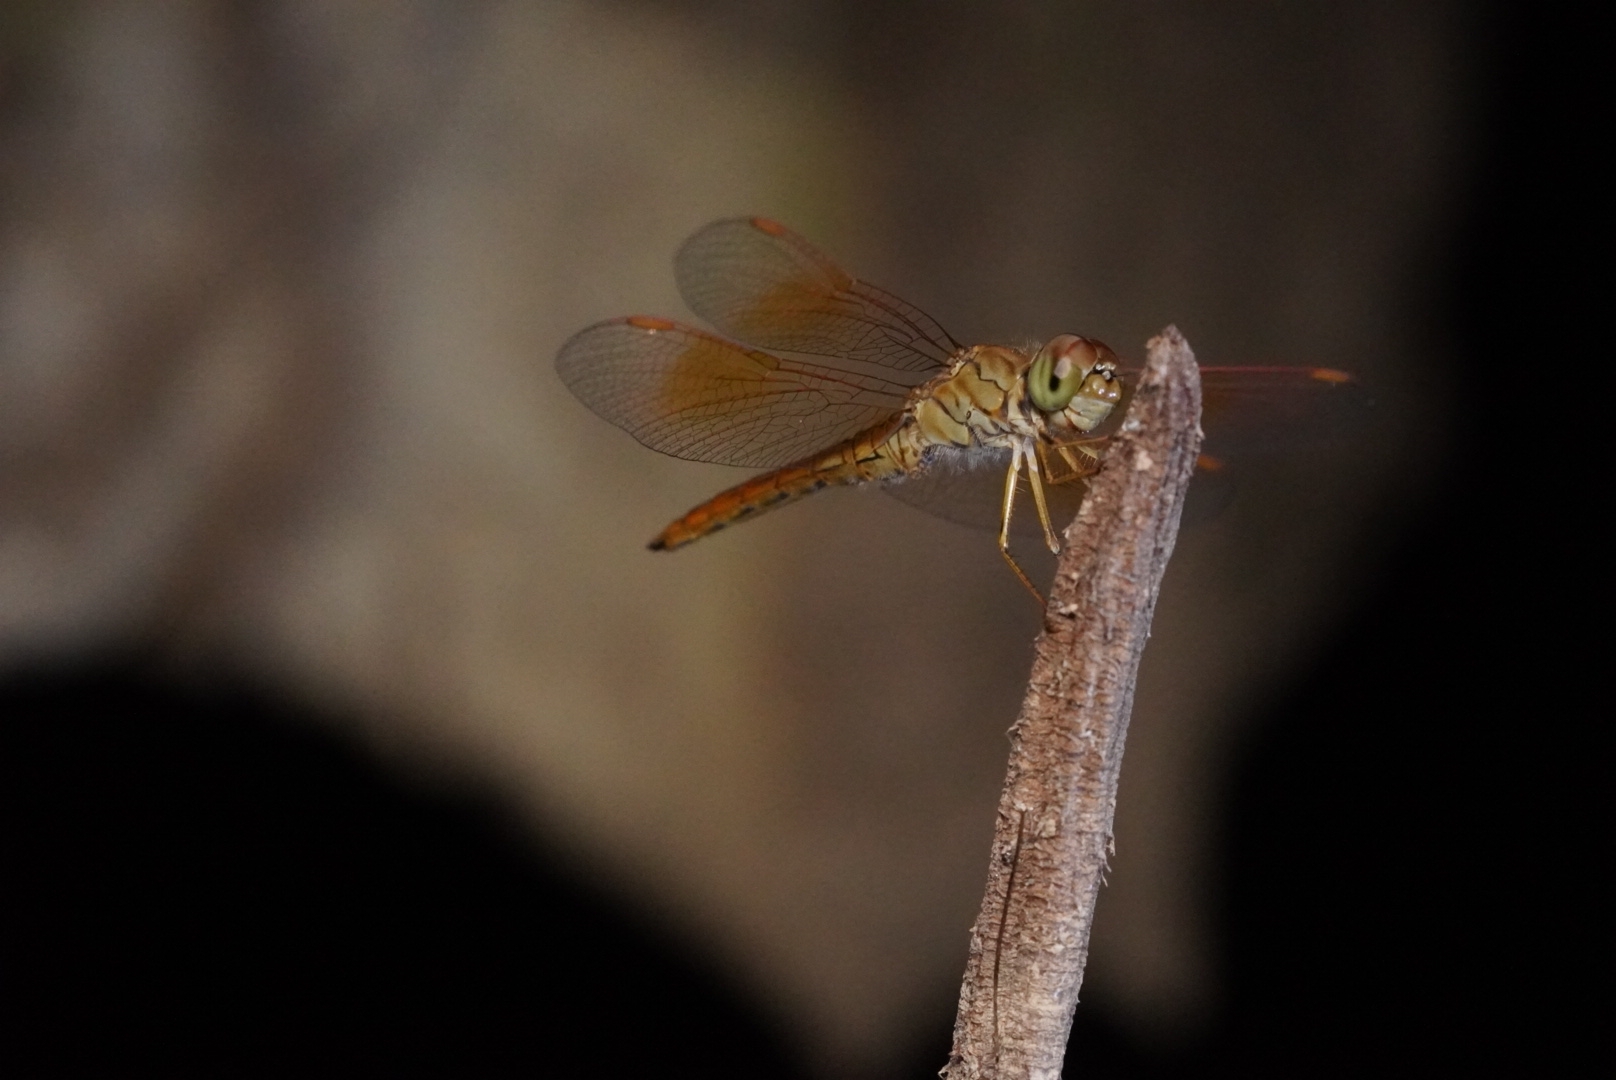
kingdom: Animalia
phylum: Arthropoda
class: Insecta
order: Odonata
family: Libellulidae
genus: Brachythemis
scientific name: Brachythemis contaminata
